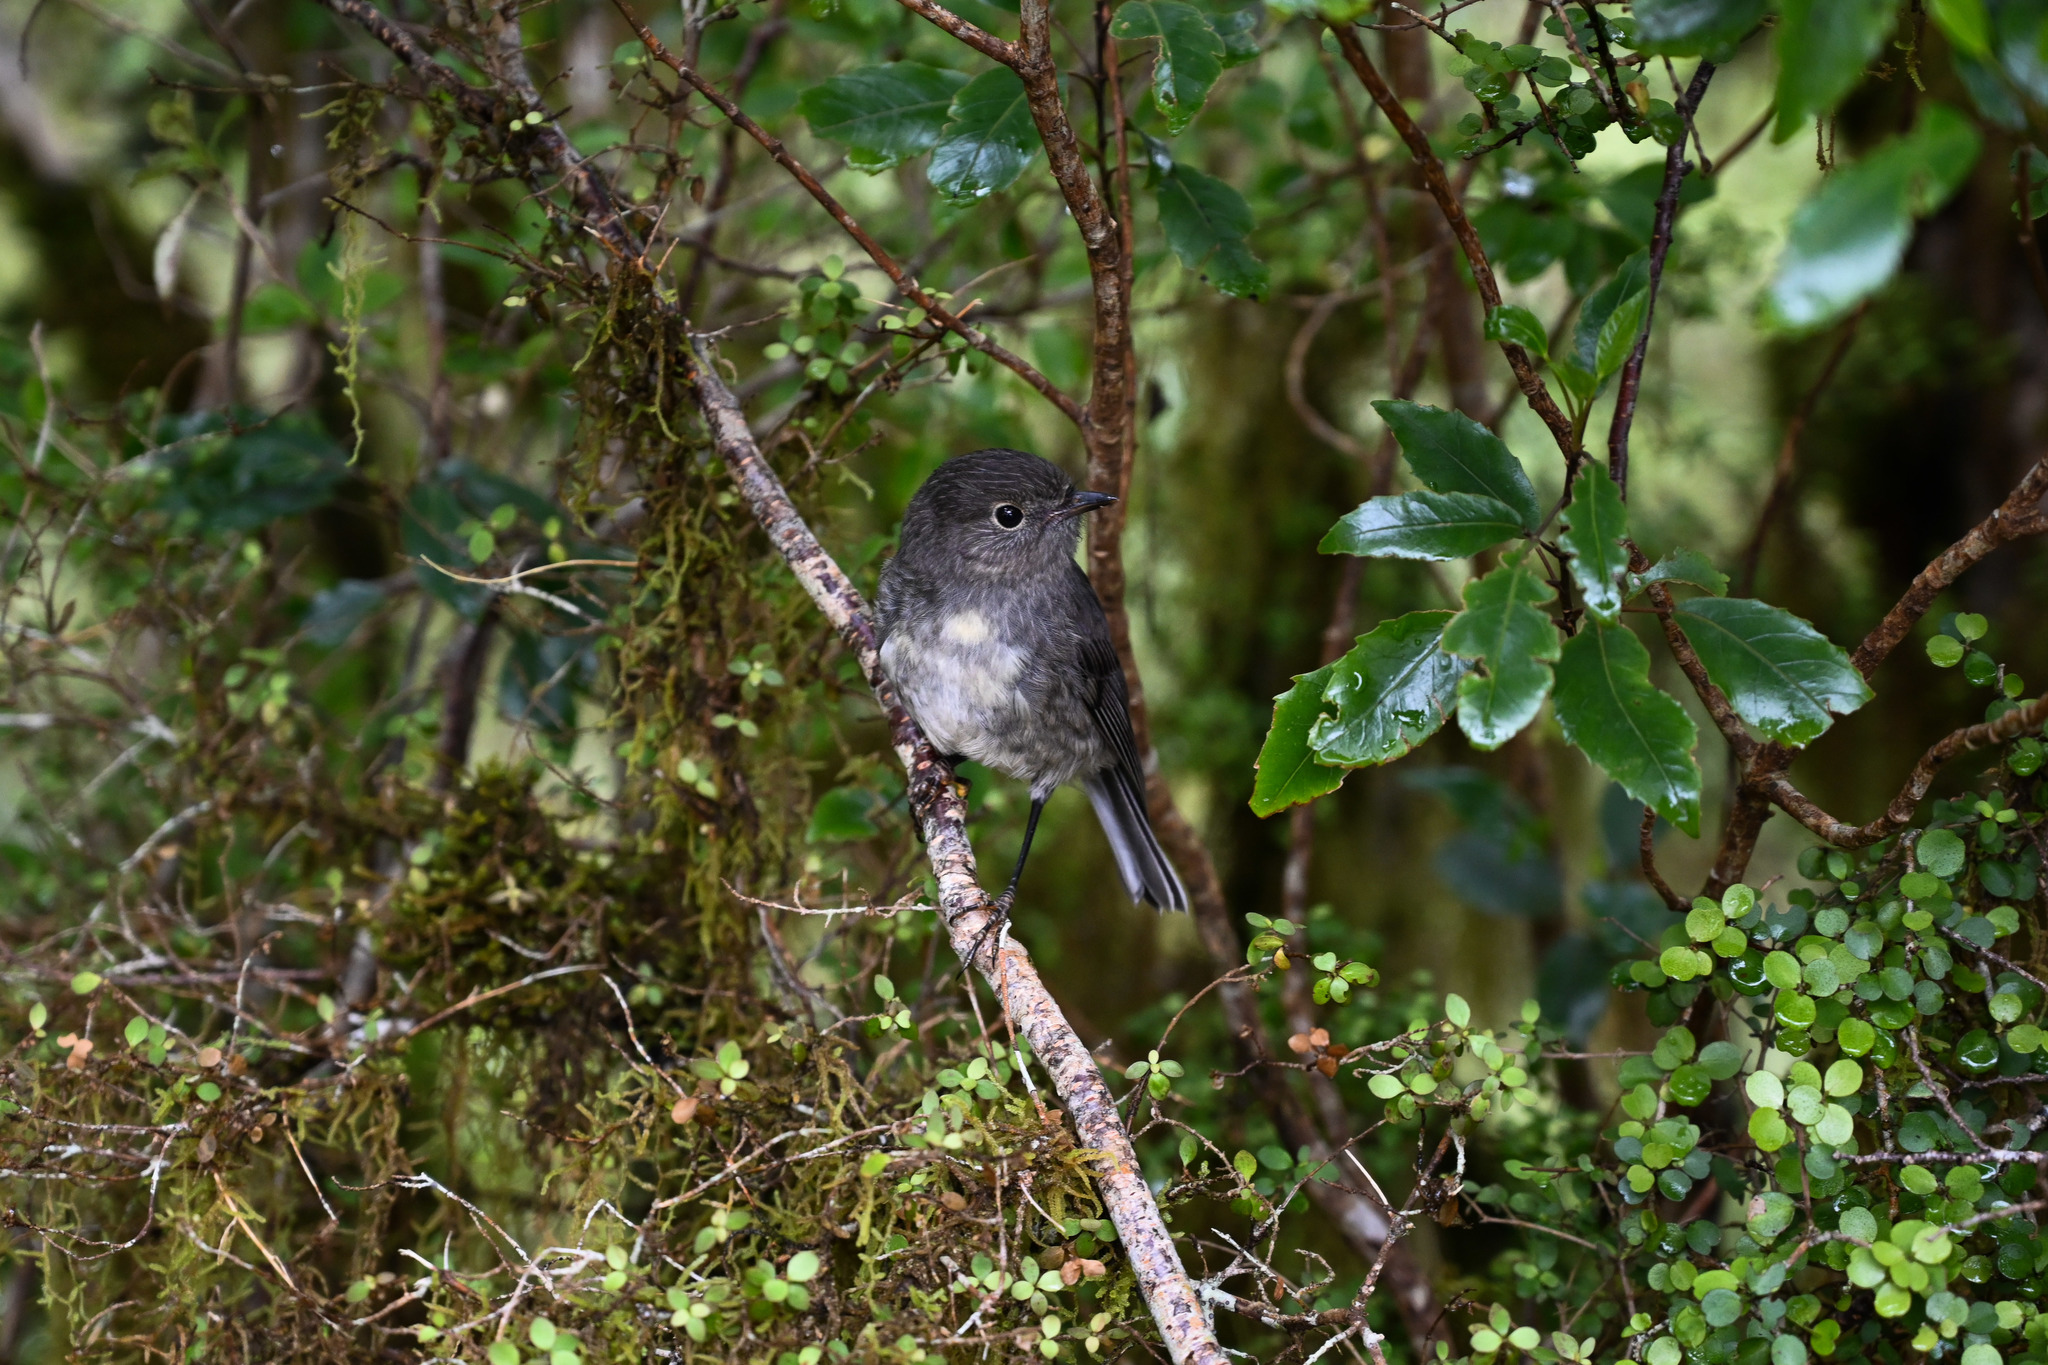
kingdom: Animalia
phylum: Chordata
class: Aves
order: Passeriformes
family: Petroicidae
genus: Petroica
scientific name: Petroica australis
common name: New zealand robin
